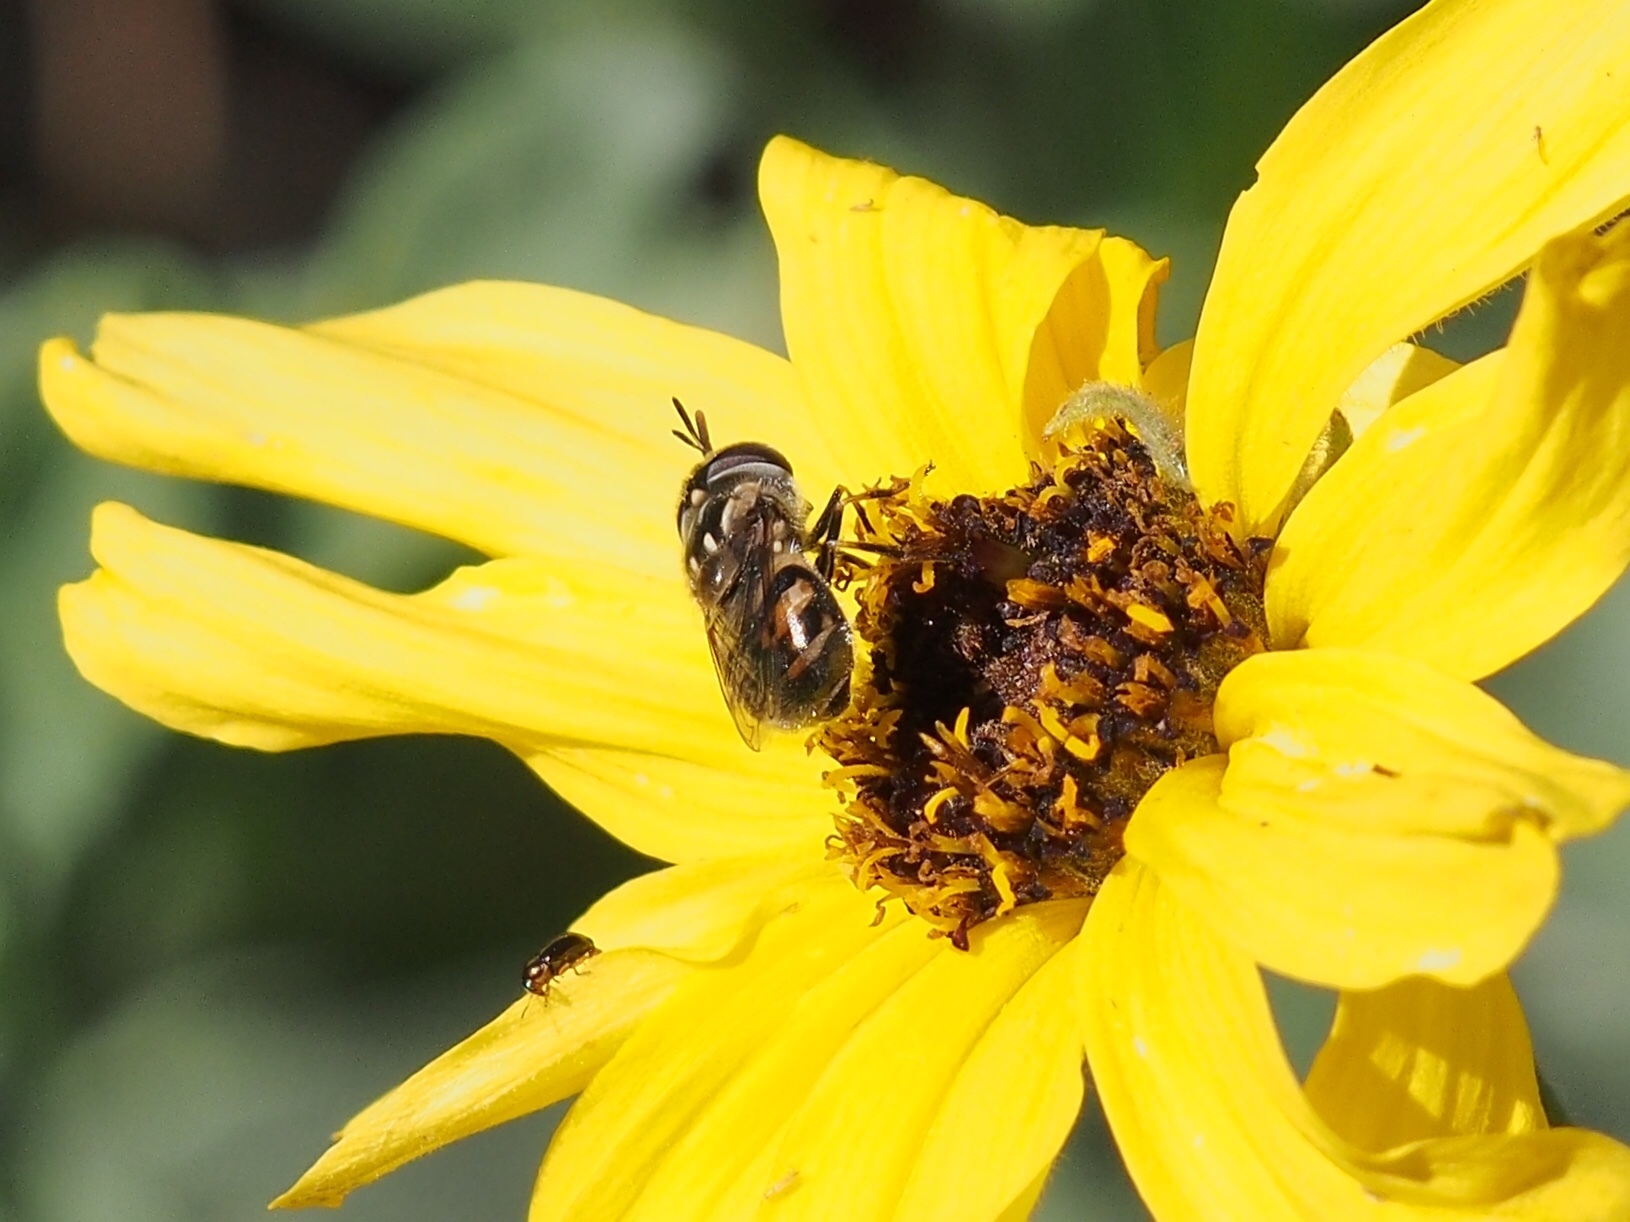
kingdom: Animalia
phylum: Arthropoda
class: Insecta
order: Diptera
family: Syrphidae
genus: Copestylum
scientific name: Copestylum marginatum
